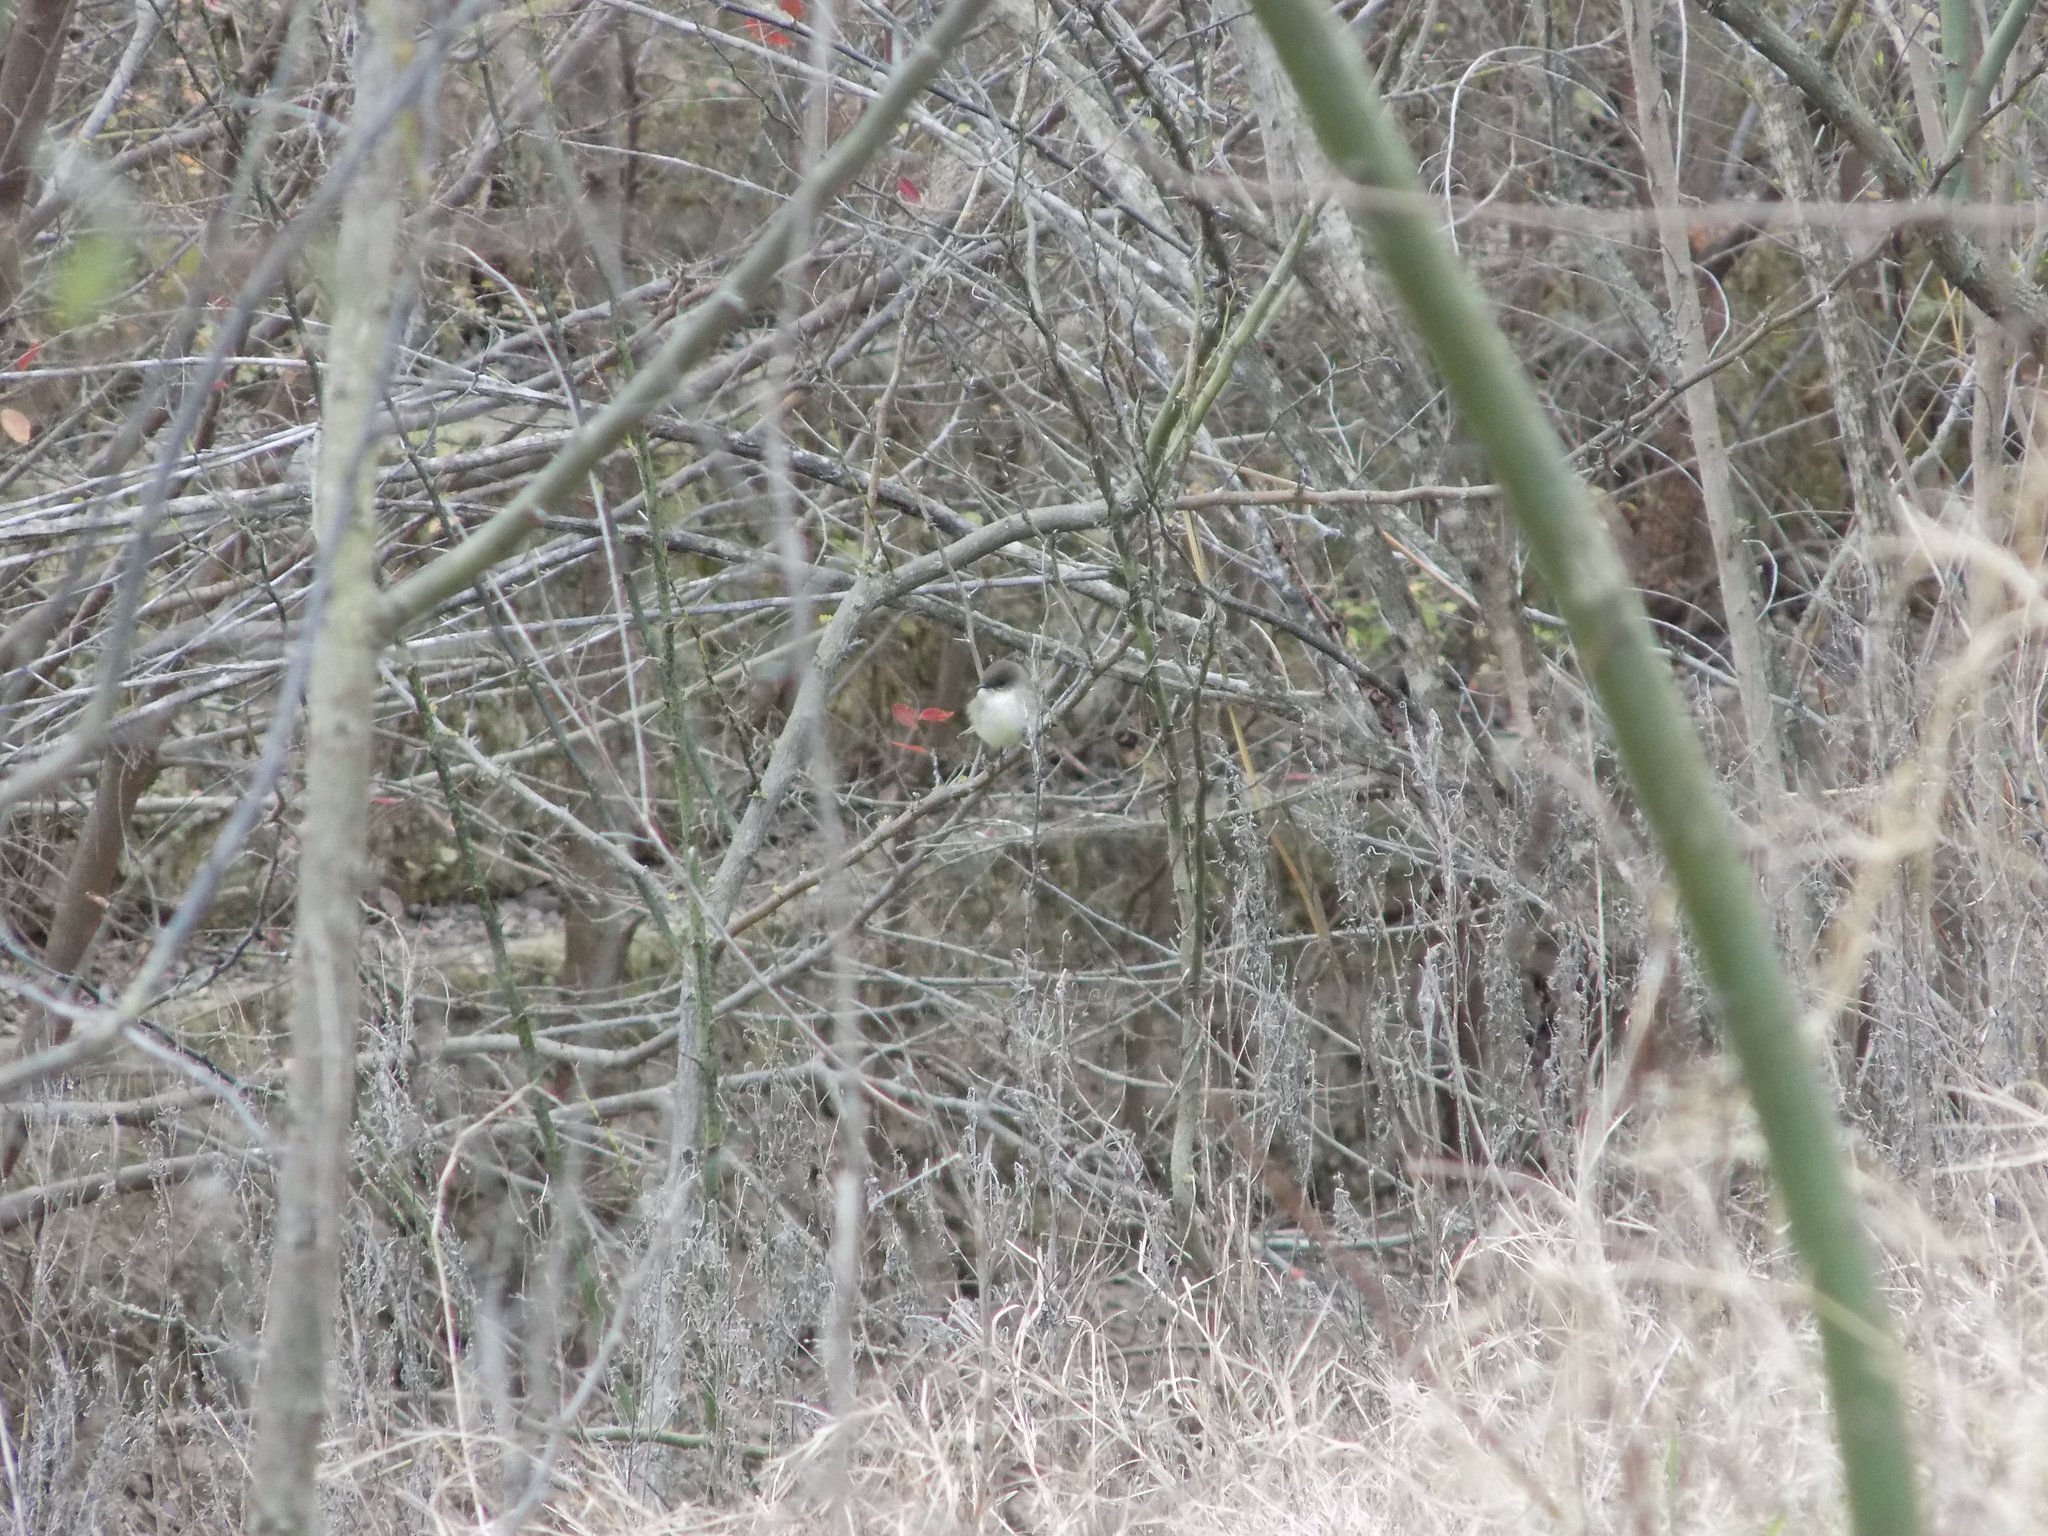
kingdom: Animalia
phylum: Chordata
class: Aves
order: Passeriformes
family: Tyrannidae
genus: Sayornis
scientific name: Sayornis phoebe
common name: Eastern phoebe
